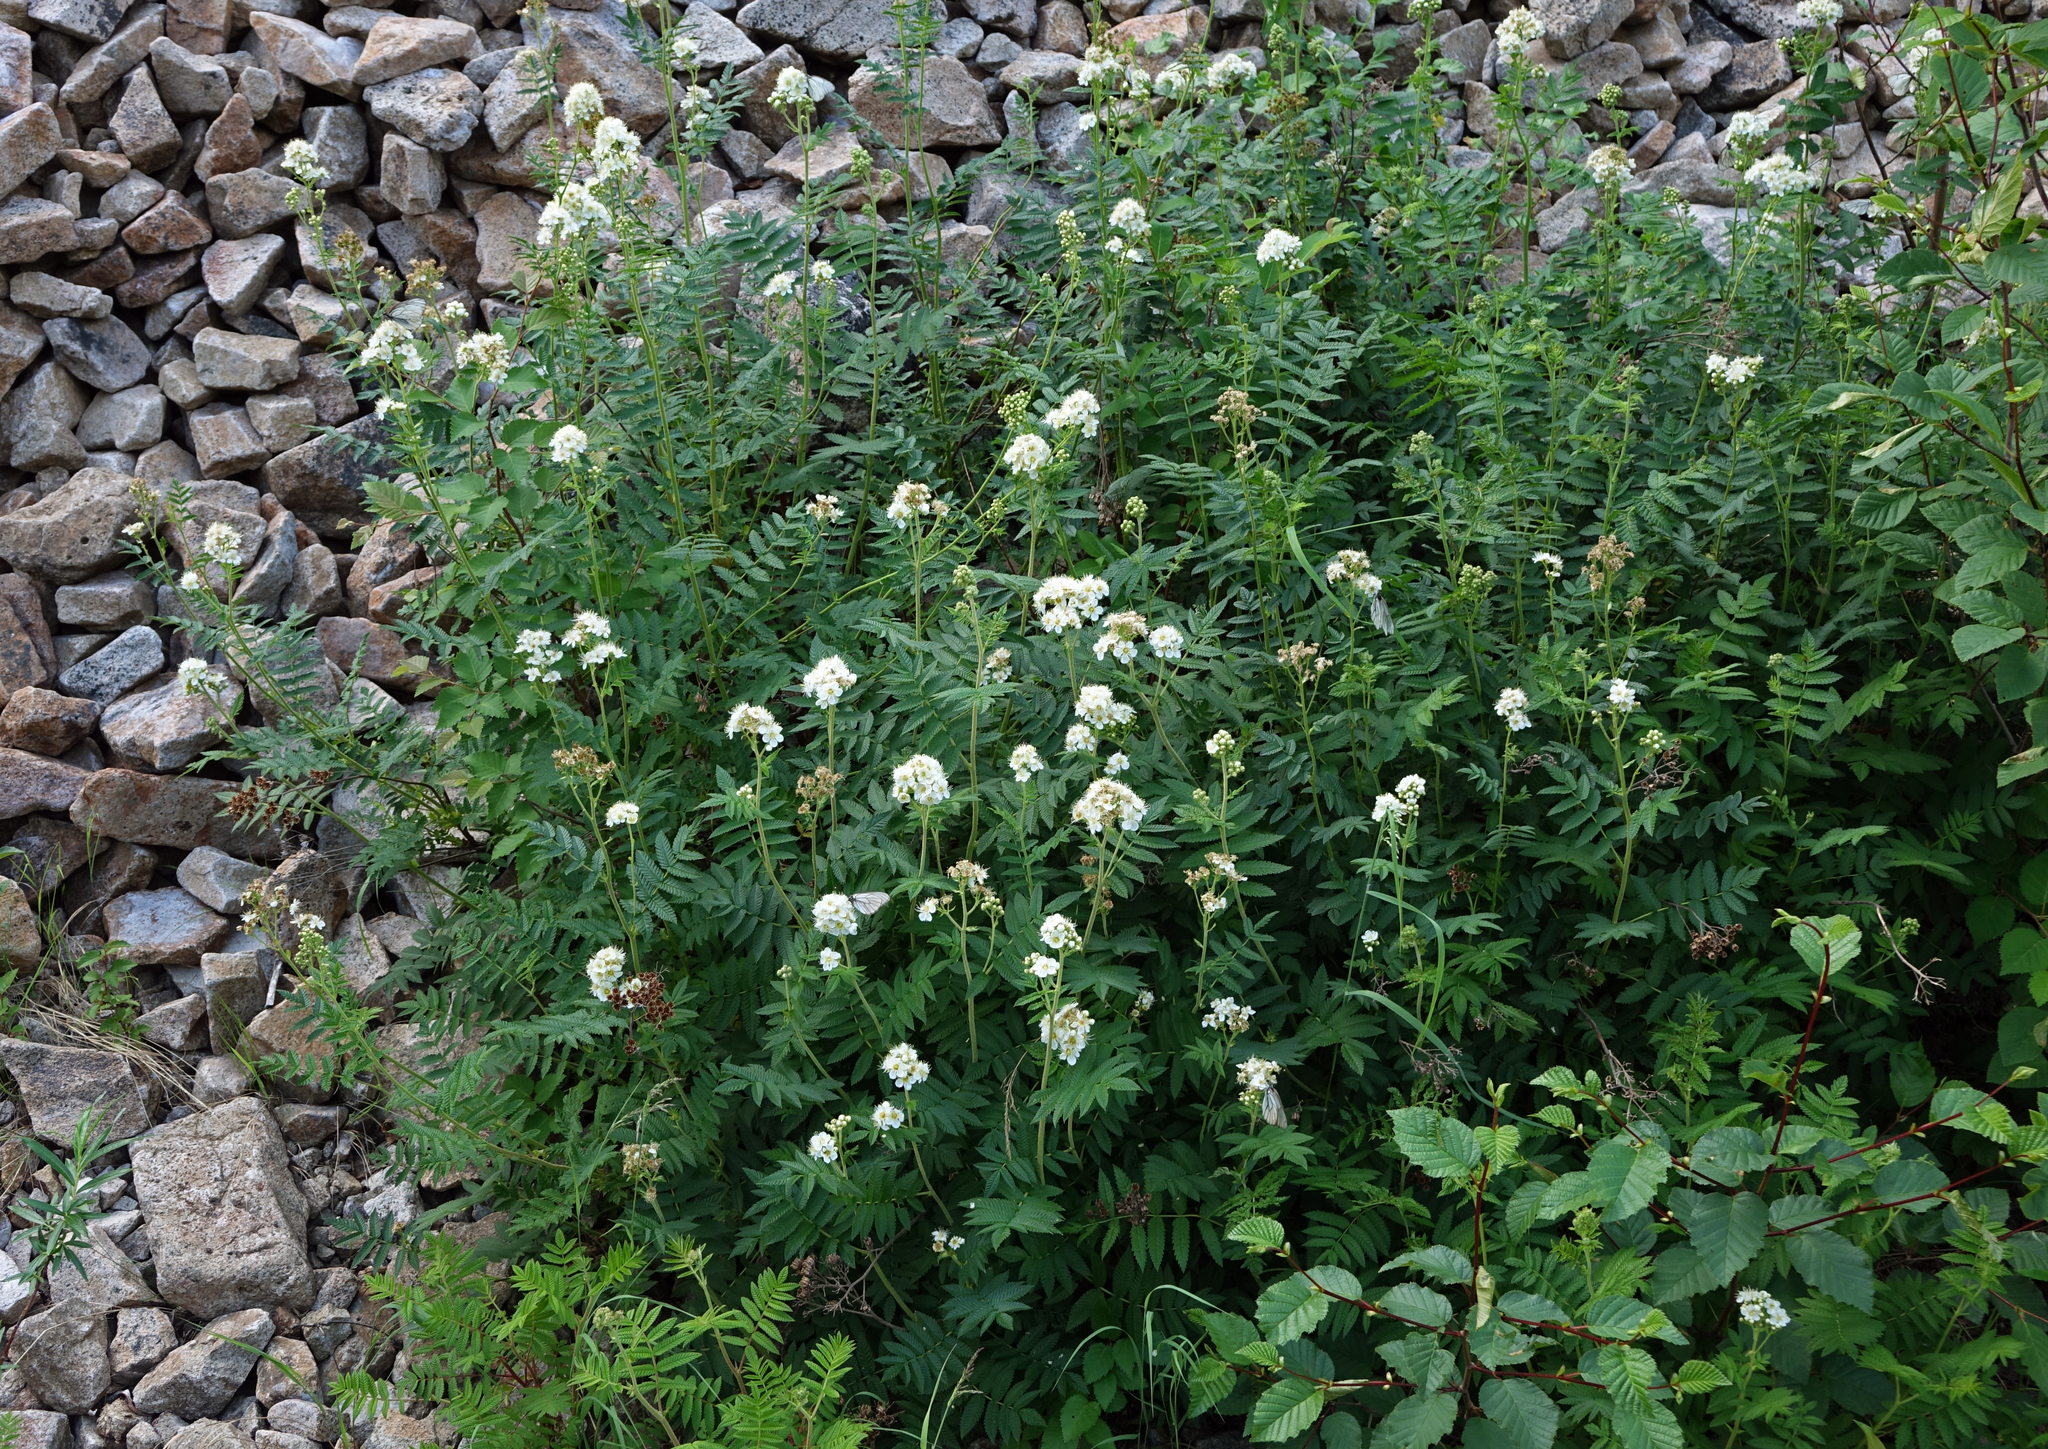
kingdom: Plantae
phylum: Tracheophyta
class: Magnoliopsida
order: Rosales
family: Rosaceae
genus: Sorbaria
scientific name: Sorbaria pallasii
